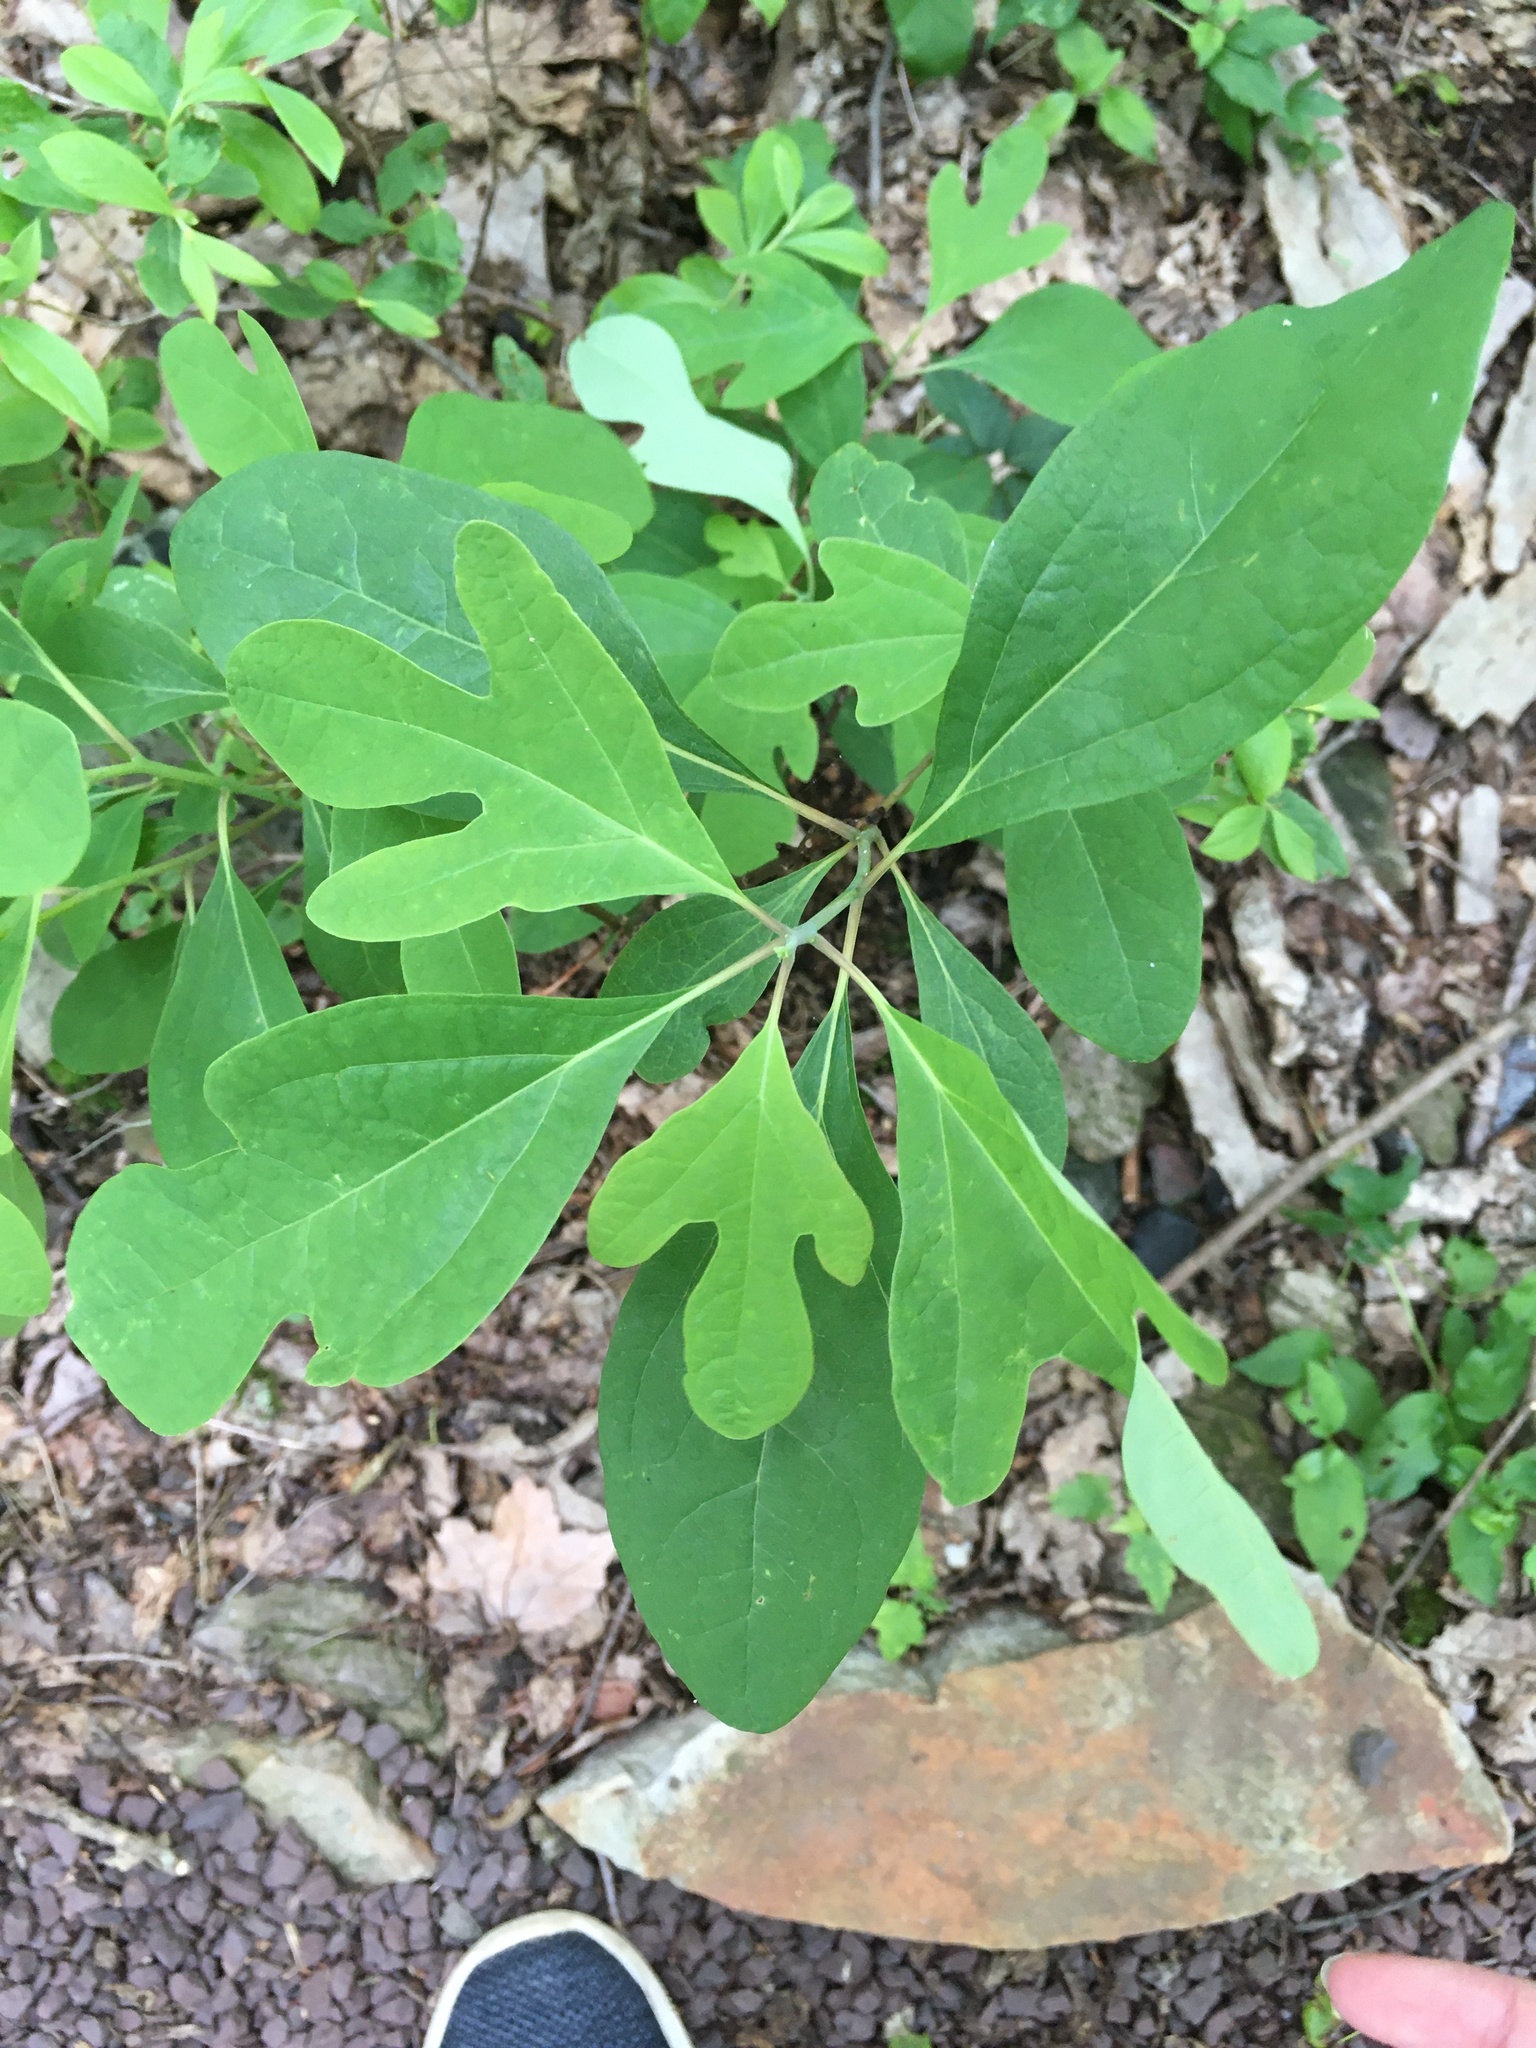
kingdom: Plantae
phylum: Tracheophyta
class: Magnoliopsida
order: Laurales
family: Lauraceae
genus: Sassafras
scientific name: Sassafras albidum
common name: Sassafras
